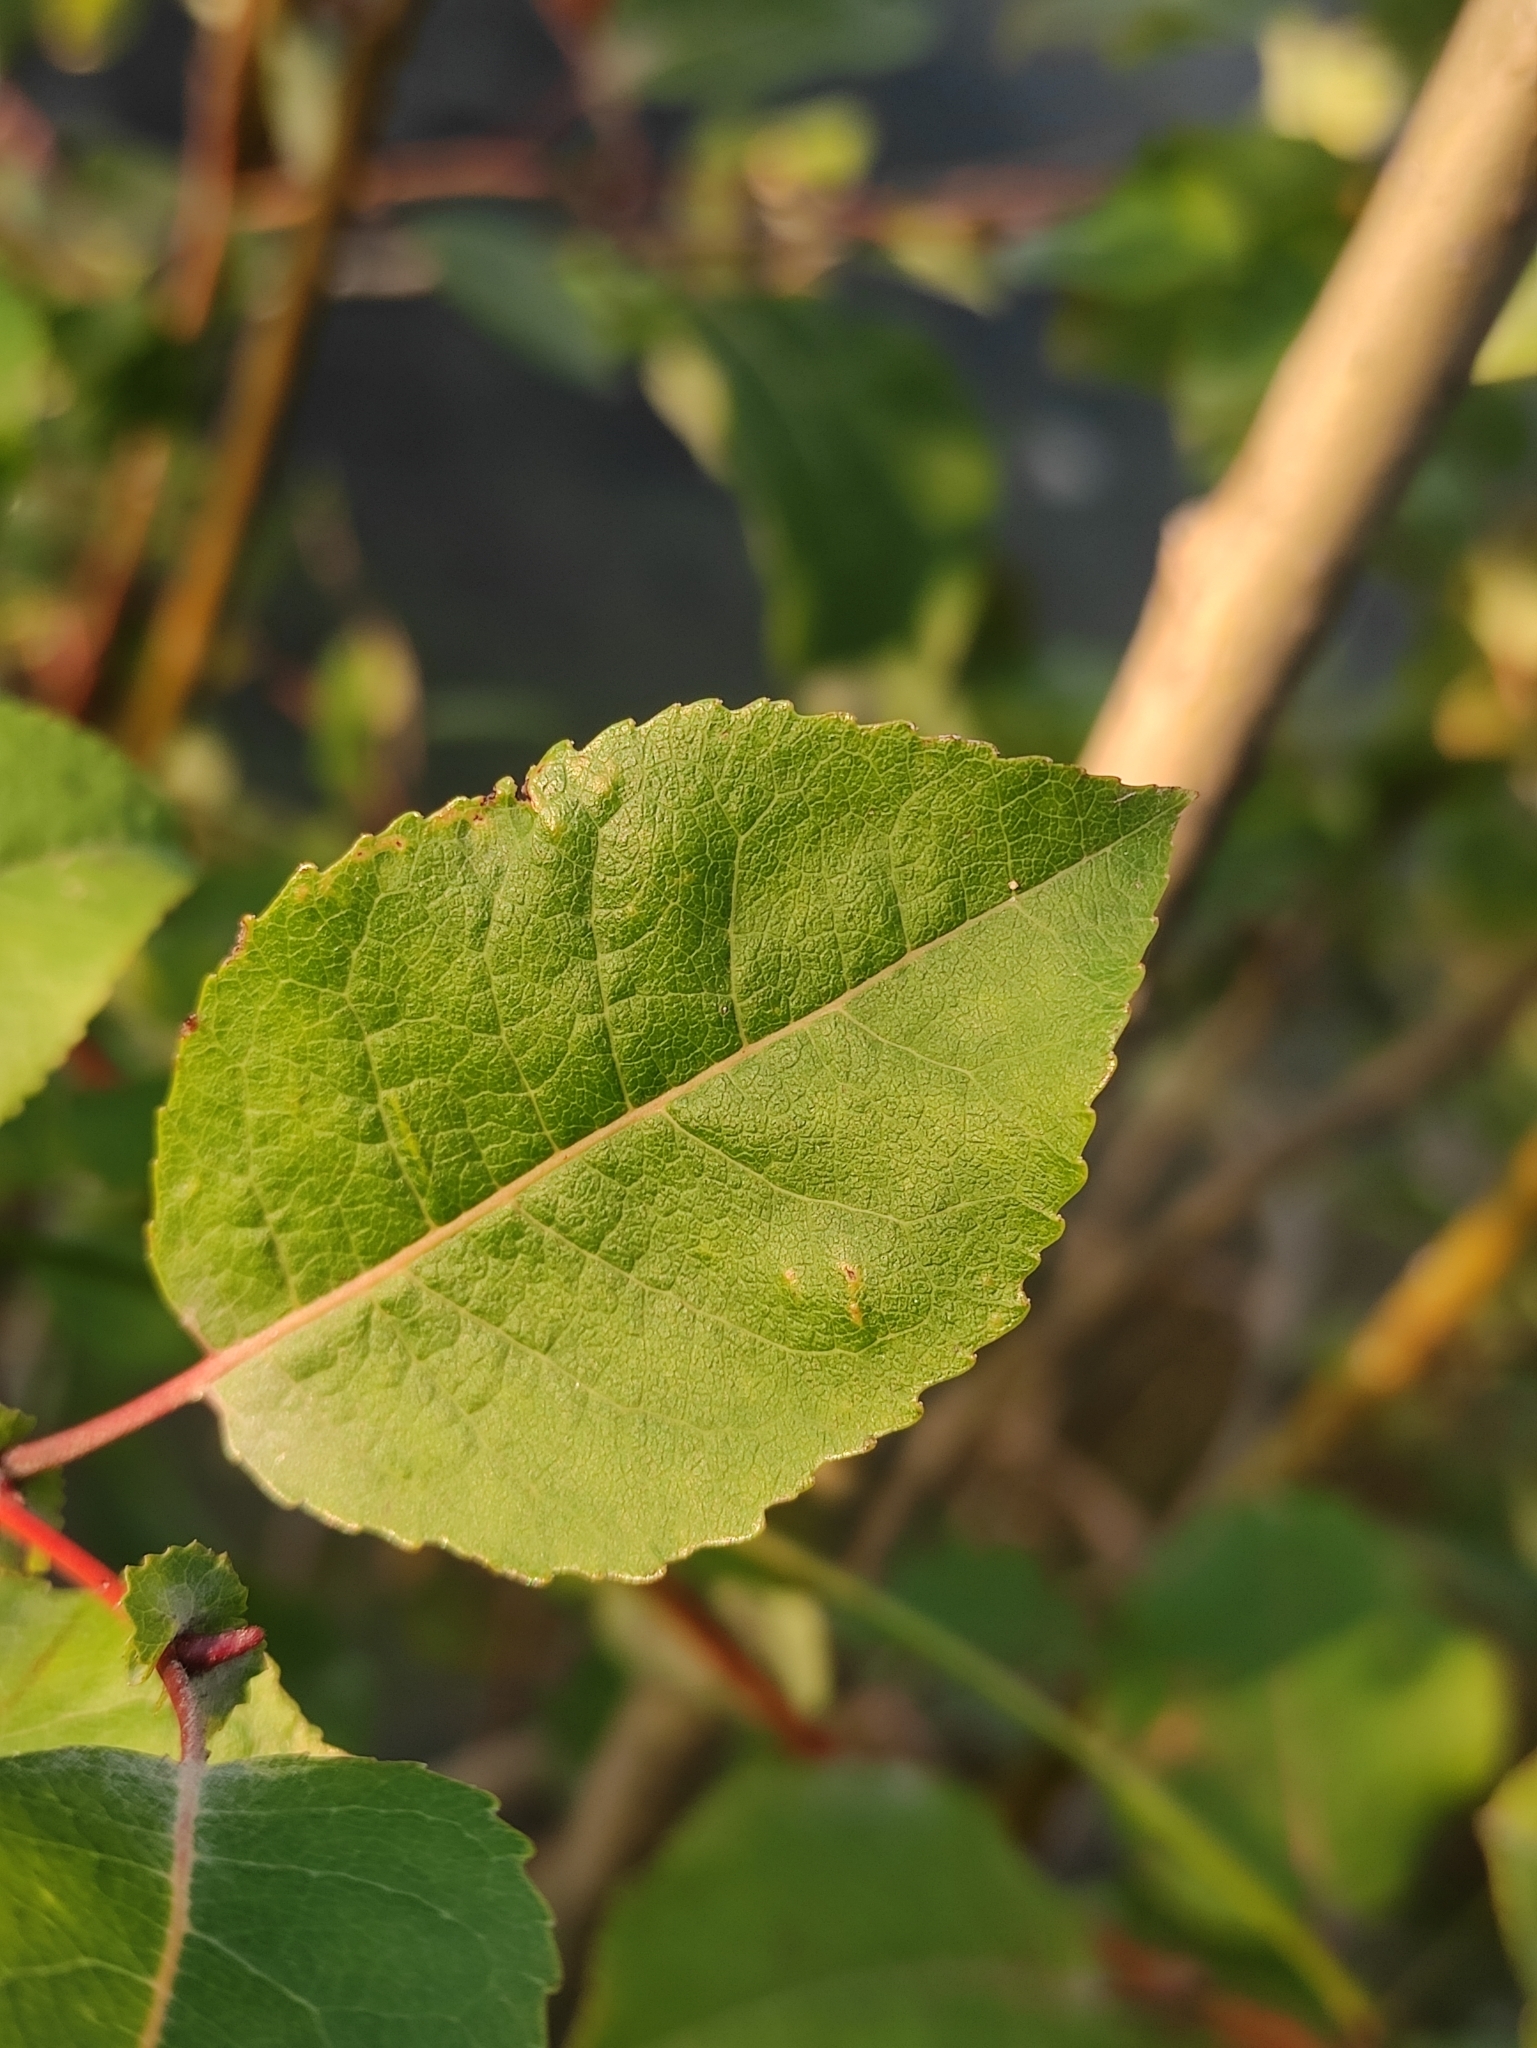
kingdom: Plantae
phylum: Tracheophyta
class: Magnoliopsida
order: Malpighiales
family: Salicaceae
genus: Salix
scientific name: Salix pyrolifolia
